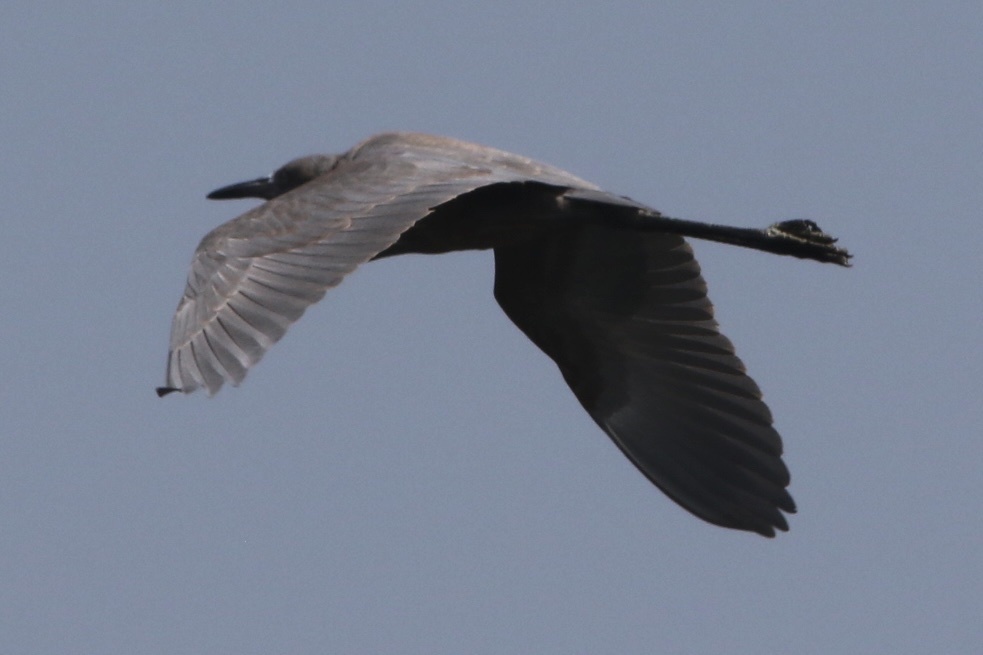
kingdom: Animalia
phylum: Chordata
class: Aves
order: Pelecaniformes
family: Ardeidae
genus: Egretta
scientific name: Egretta rufescens
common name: Reddish egret
